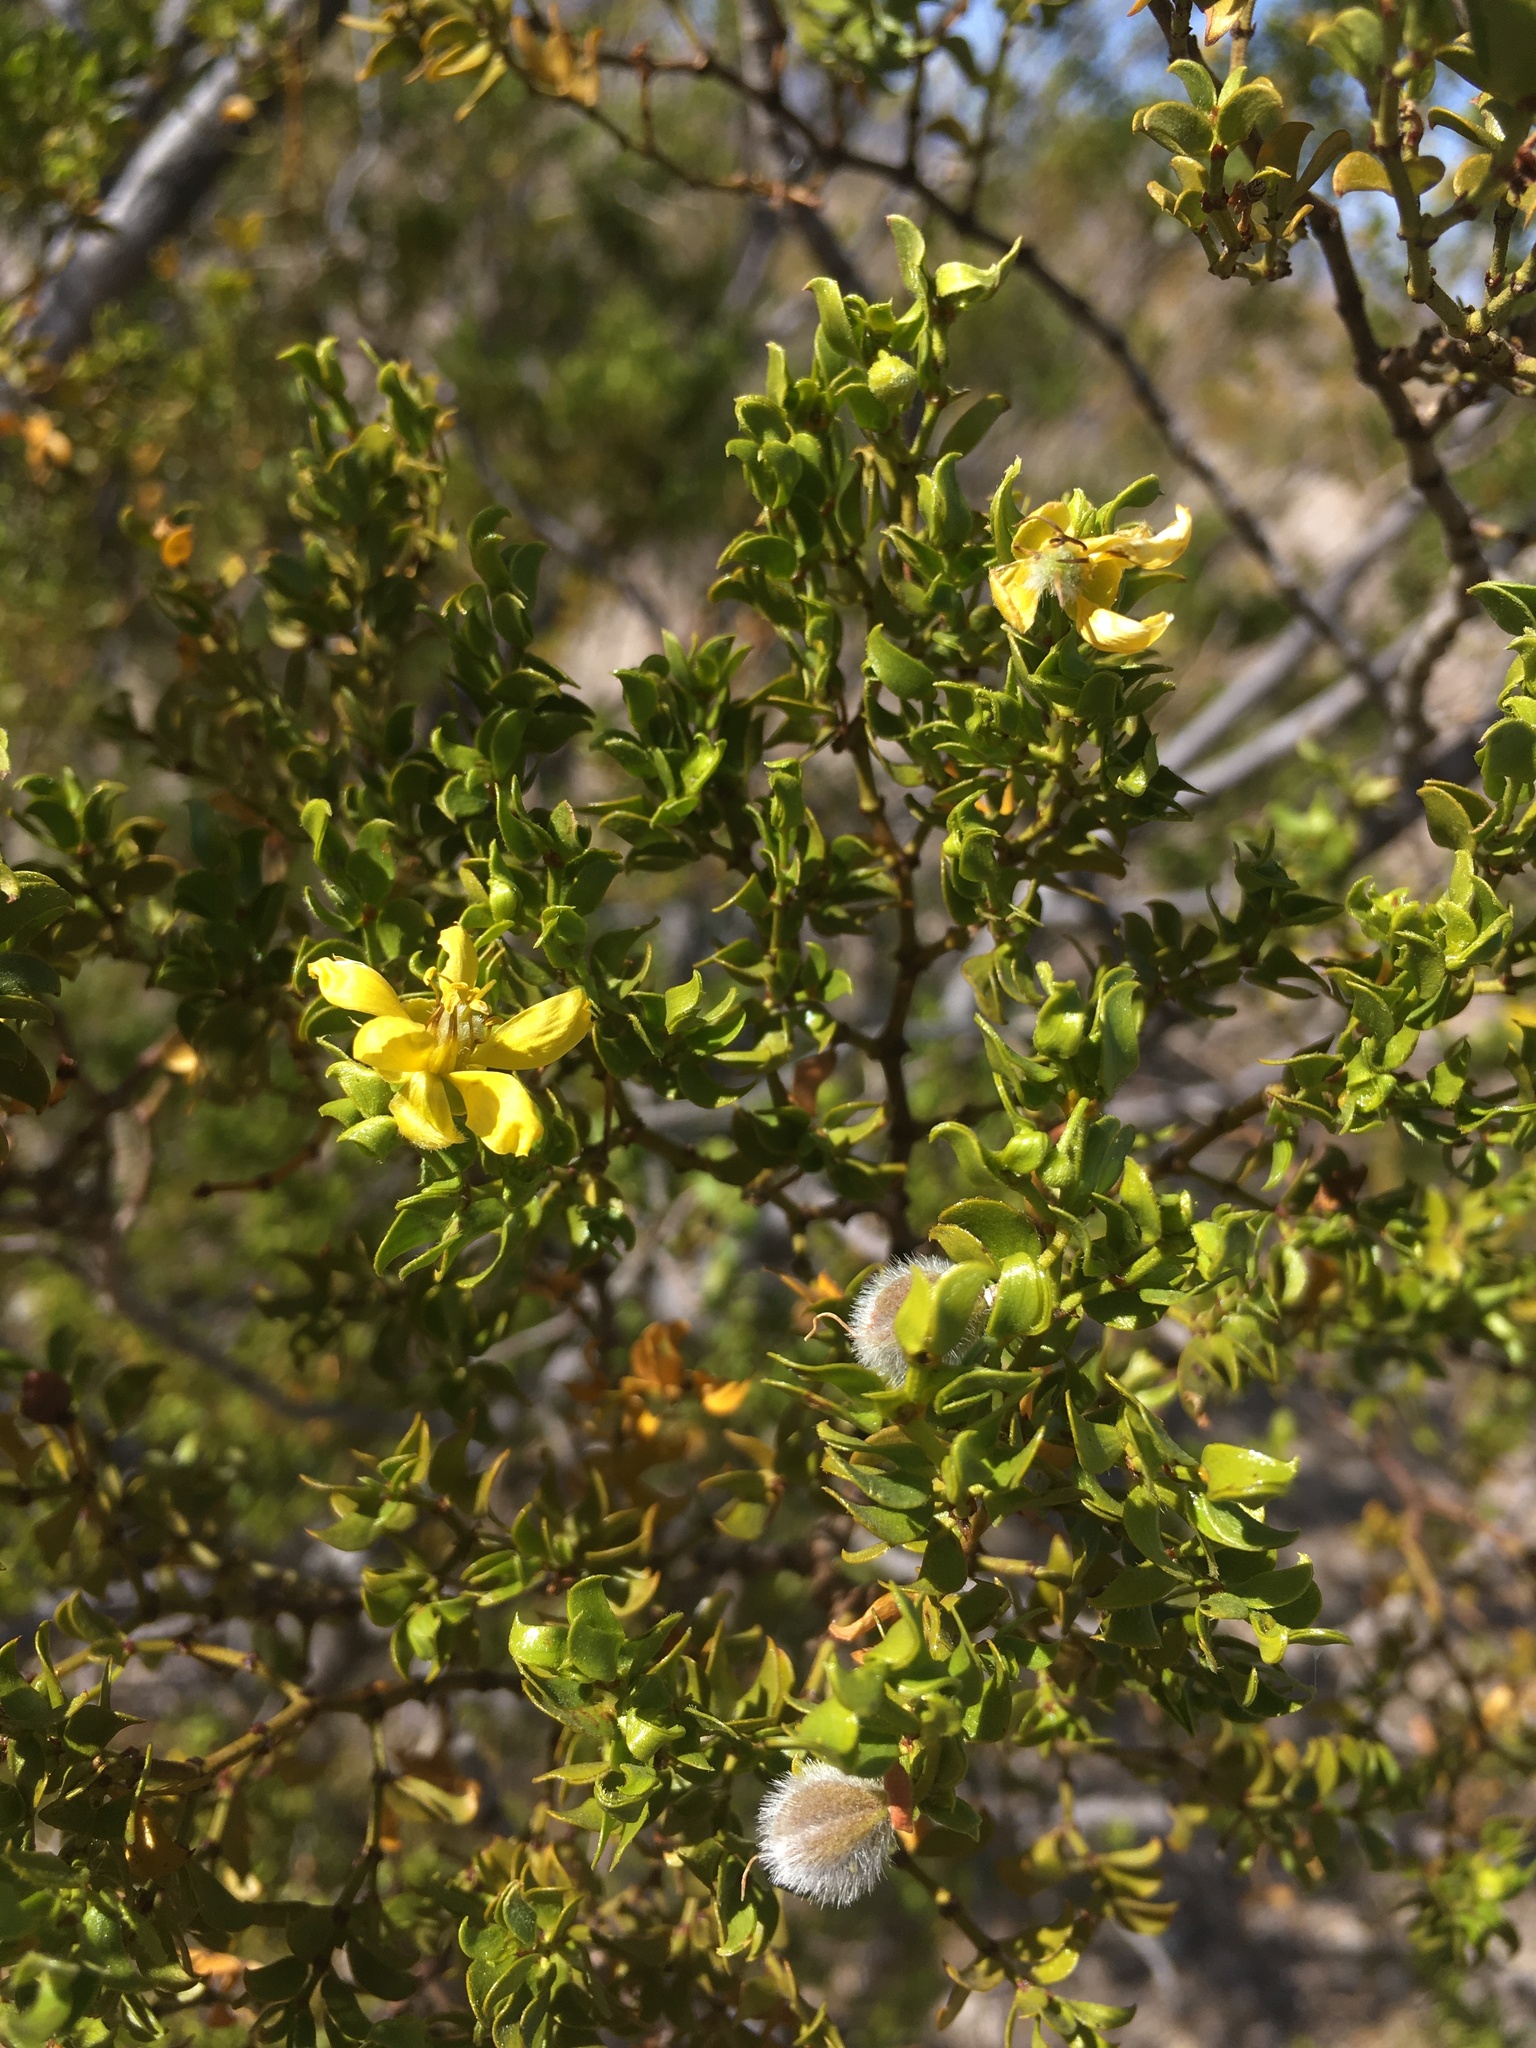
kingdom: Plantae
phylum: Tracheophyta
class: Magnoliopsida
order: Zygophyllales
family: Zygophyllaceae
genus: Larrea
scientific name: Larrea tridentata
